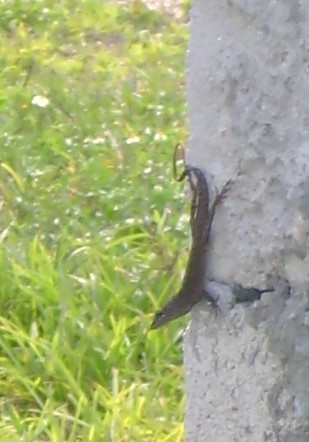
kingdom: Animalia
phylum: Chordata
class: Squamata
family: Dactyloidae
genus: Anolis
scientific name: Anolis sagrei
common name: Brown anole
